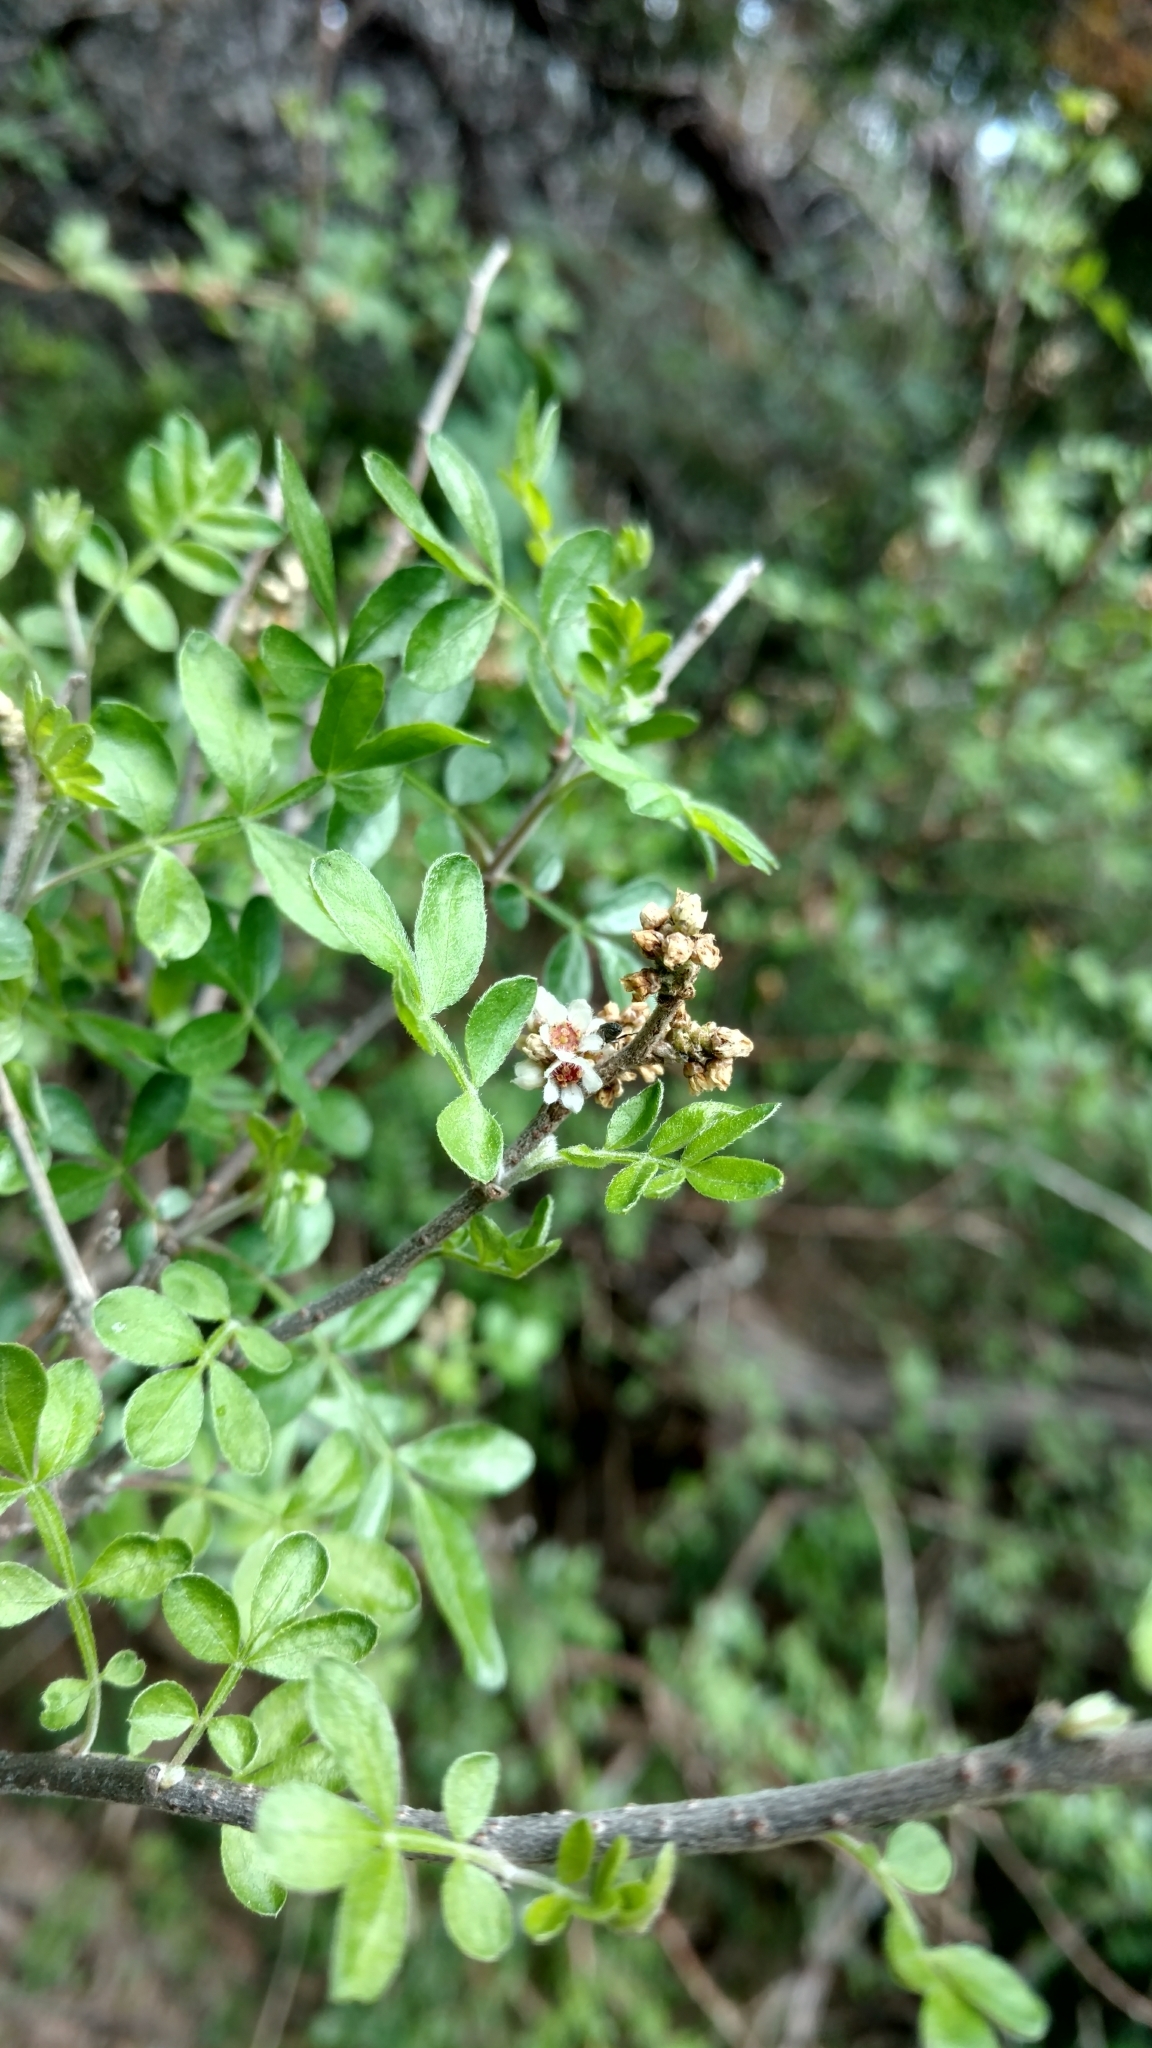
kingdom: Plantae
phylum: Tracheophyta
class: Magnoliopsida
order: Sapindales
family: Anacardiaceae
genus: Rhus
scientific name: Rhus microphylla
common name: Desert sumac
